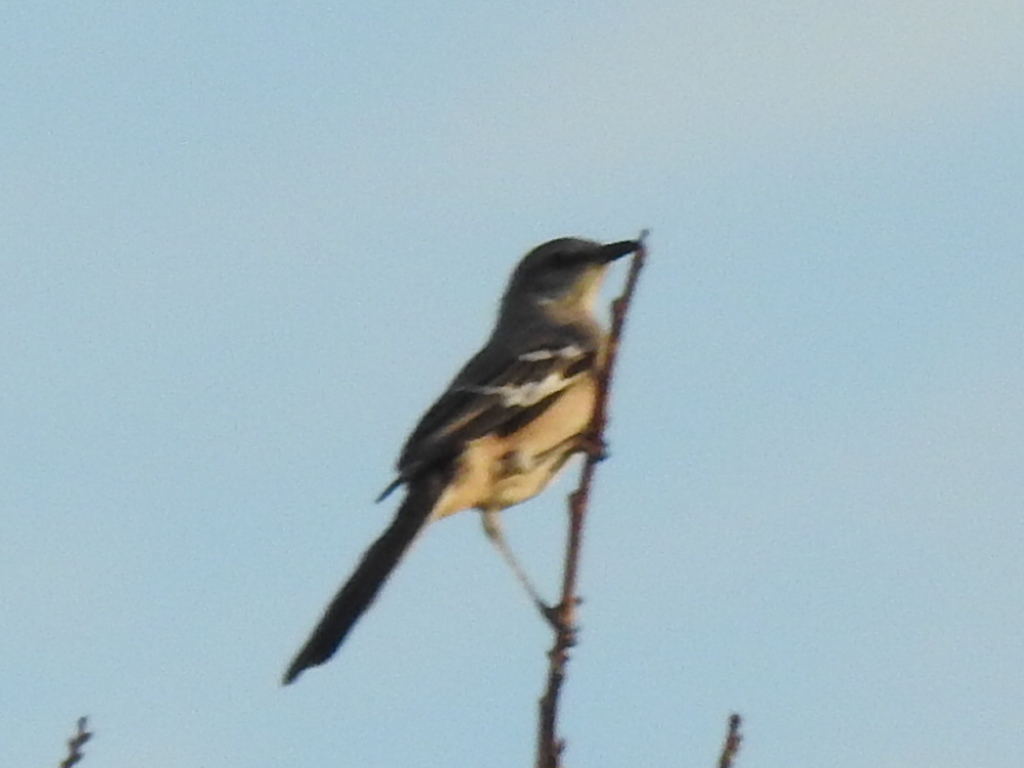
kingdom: Animalia
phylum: Chordata
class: Aves
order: Passeriformes
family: Mimidae
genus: Mimus
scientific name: Mimus polyglottos
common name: Northern mockingbird
